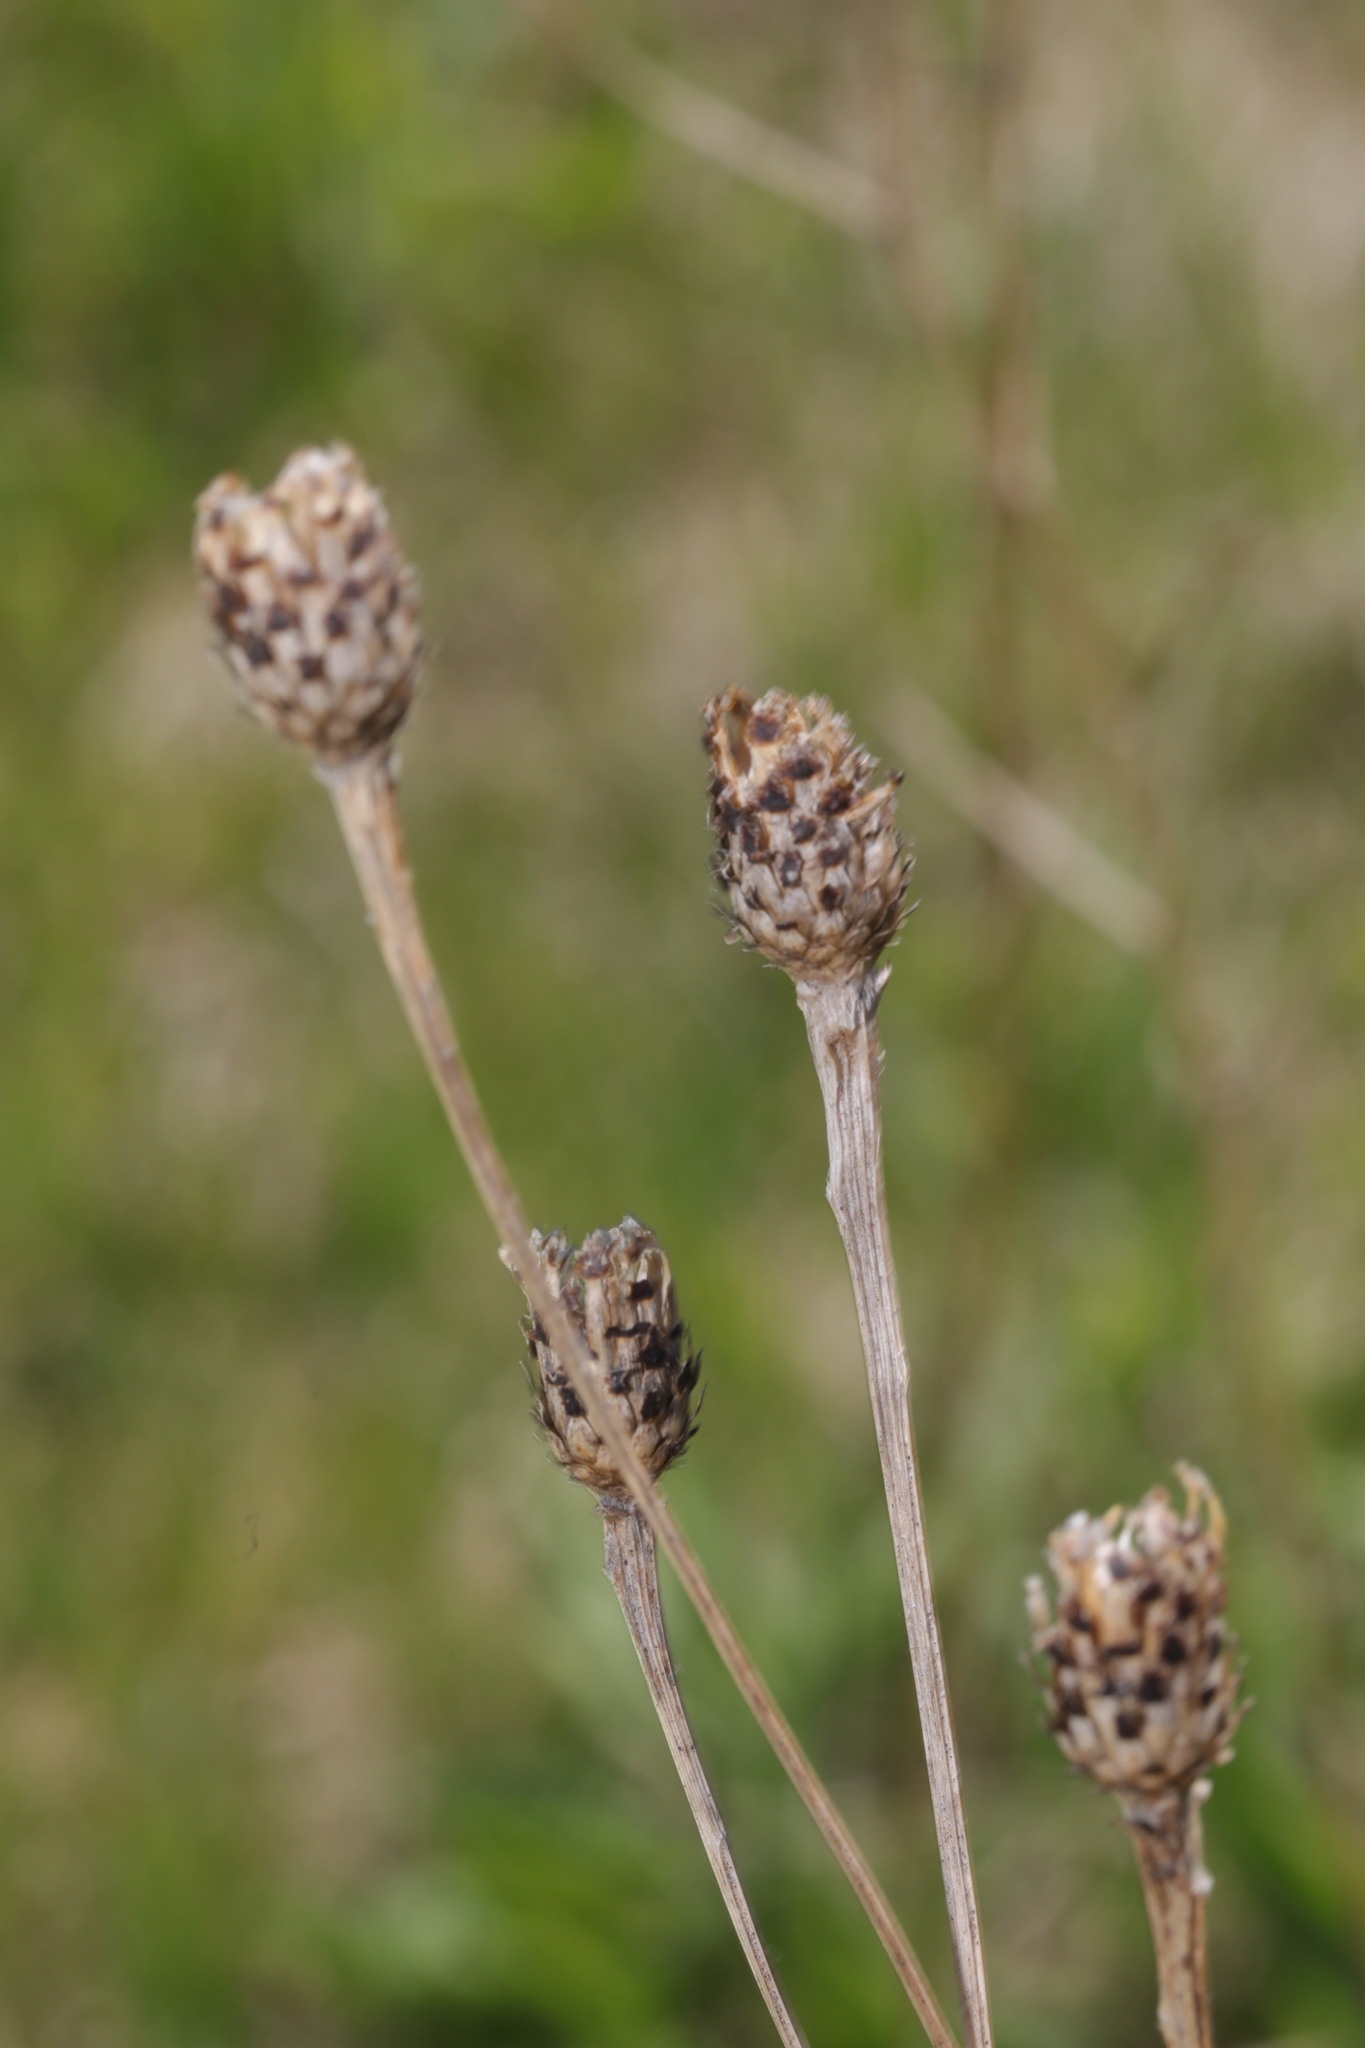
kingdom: Plantae
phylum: Tracheophyta
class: Magnoliopsida
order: Asterales
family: Asteraceae
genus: Centaurea
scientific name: Centaurea nigra
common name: Lesser knapweed
